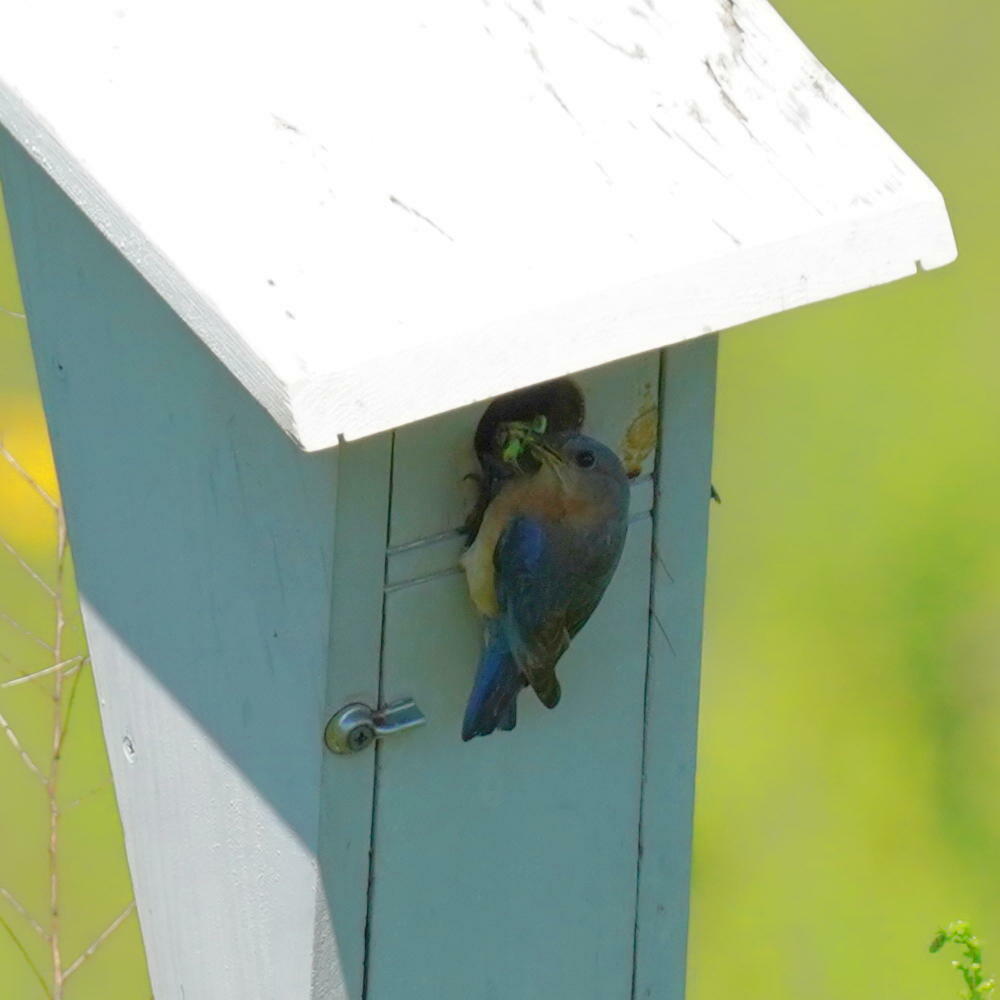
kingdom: Animalia
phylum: Chordata
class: Aves
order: Passeriformes
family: Turdidae
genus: Sialia
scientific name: Sialia sialis
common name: Eastern bluebird
